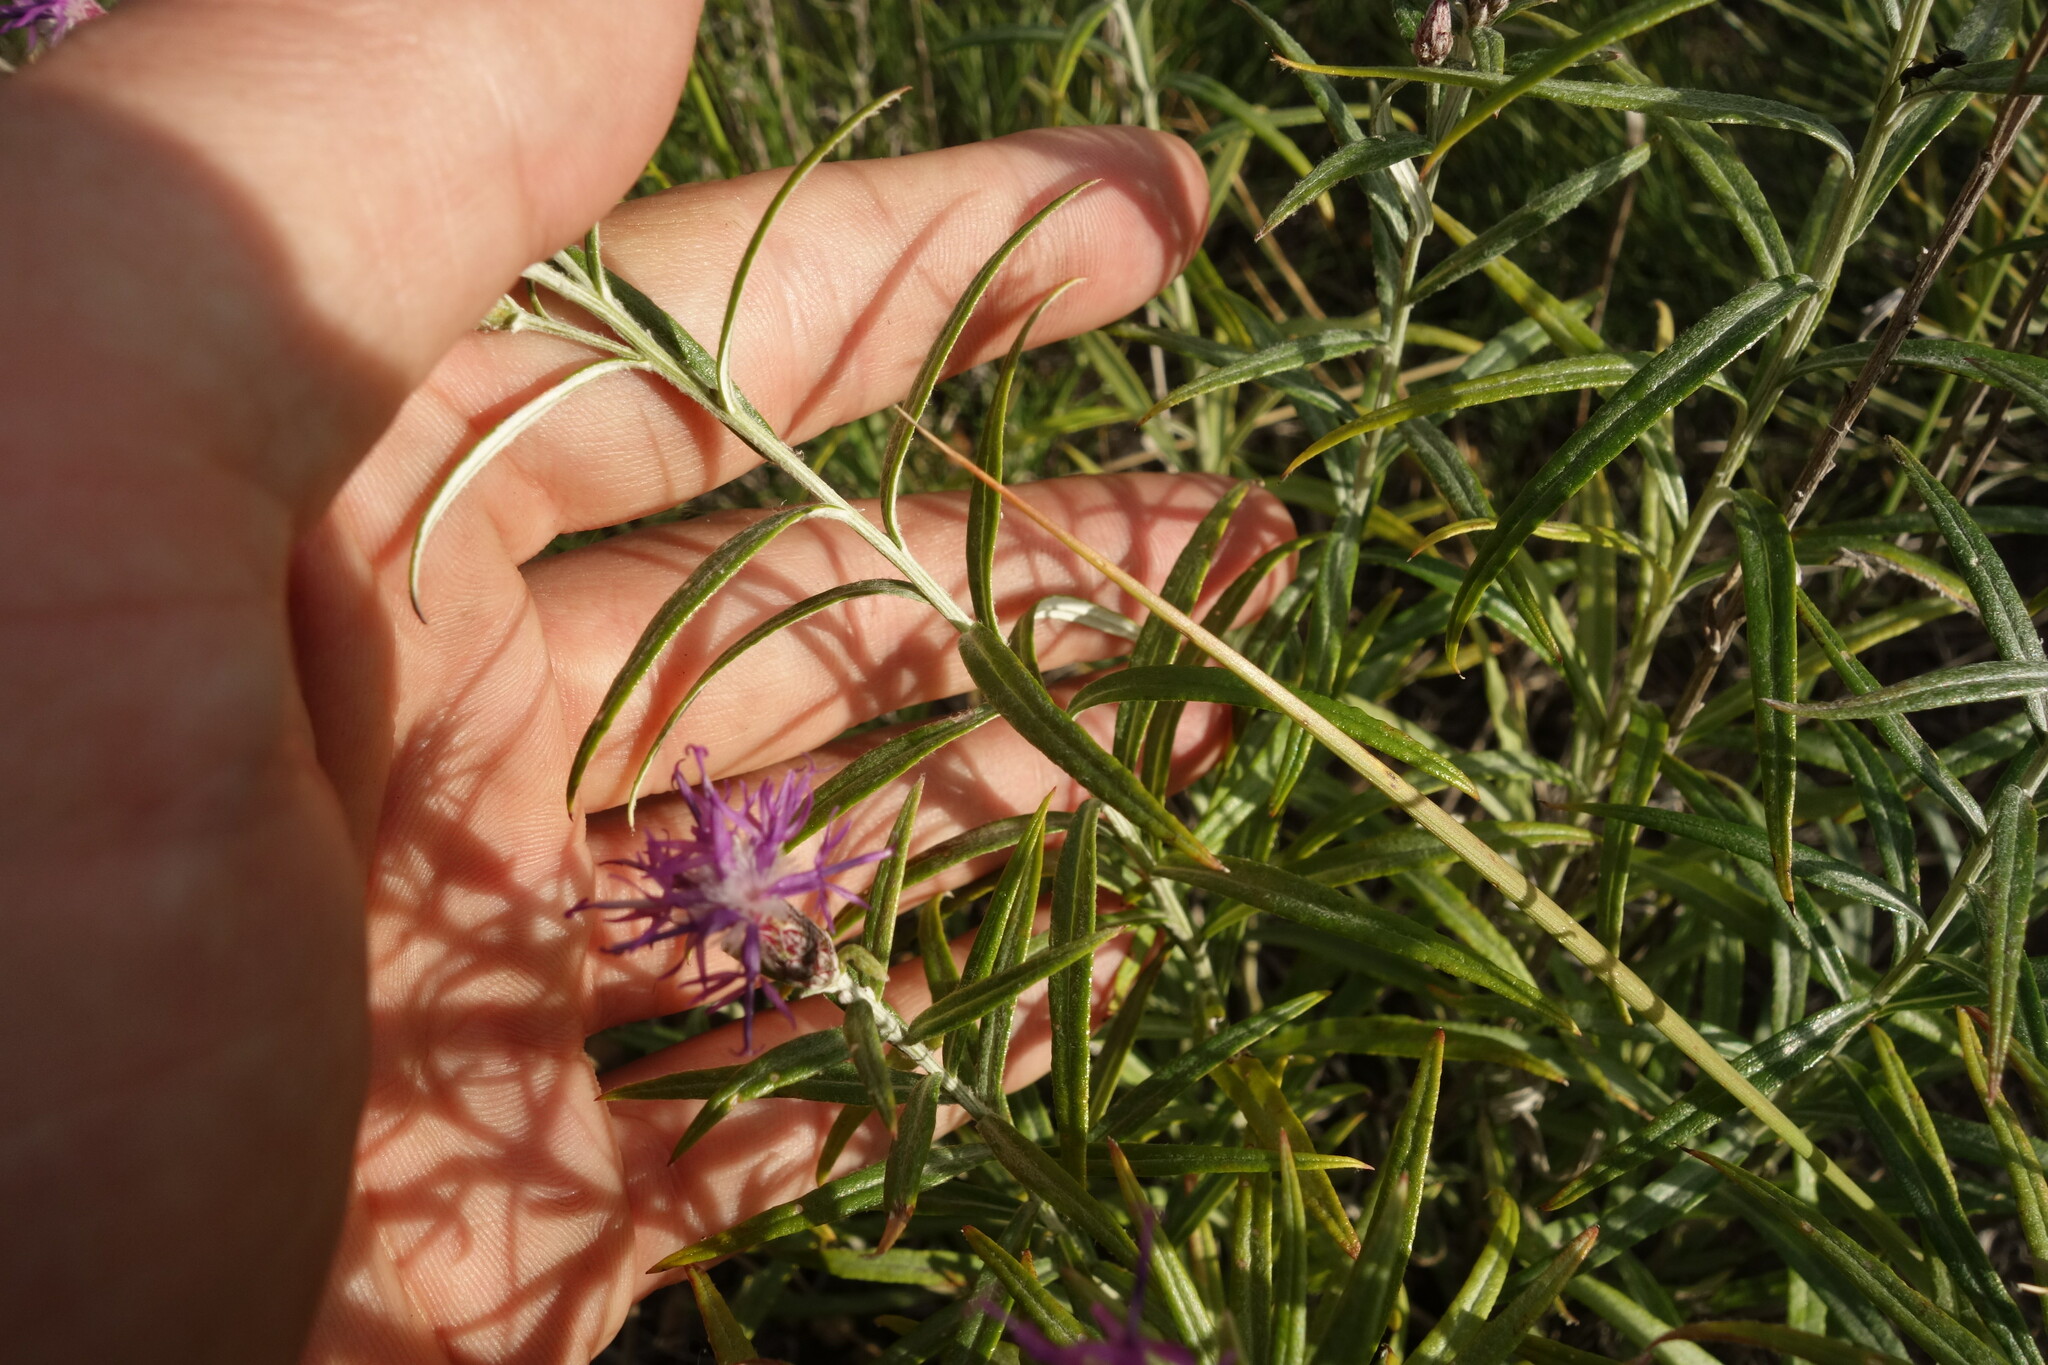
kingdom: Plantae
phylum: Tracheophyta
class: Magnoliopsida
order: Asterales
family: Asteraceae
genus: Saussurea
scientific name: Saussurea salicifolia
